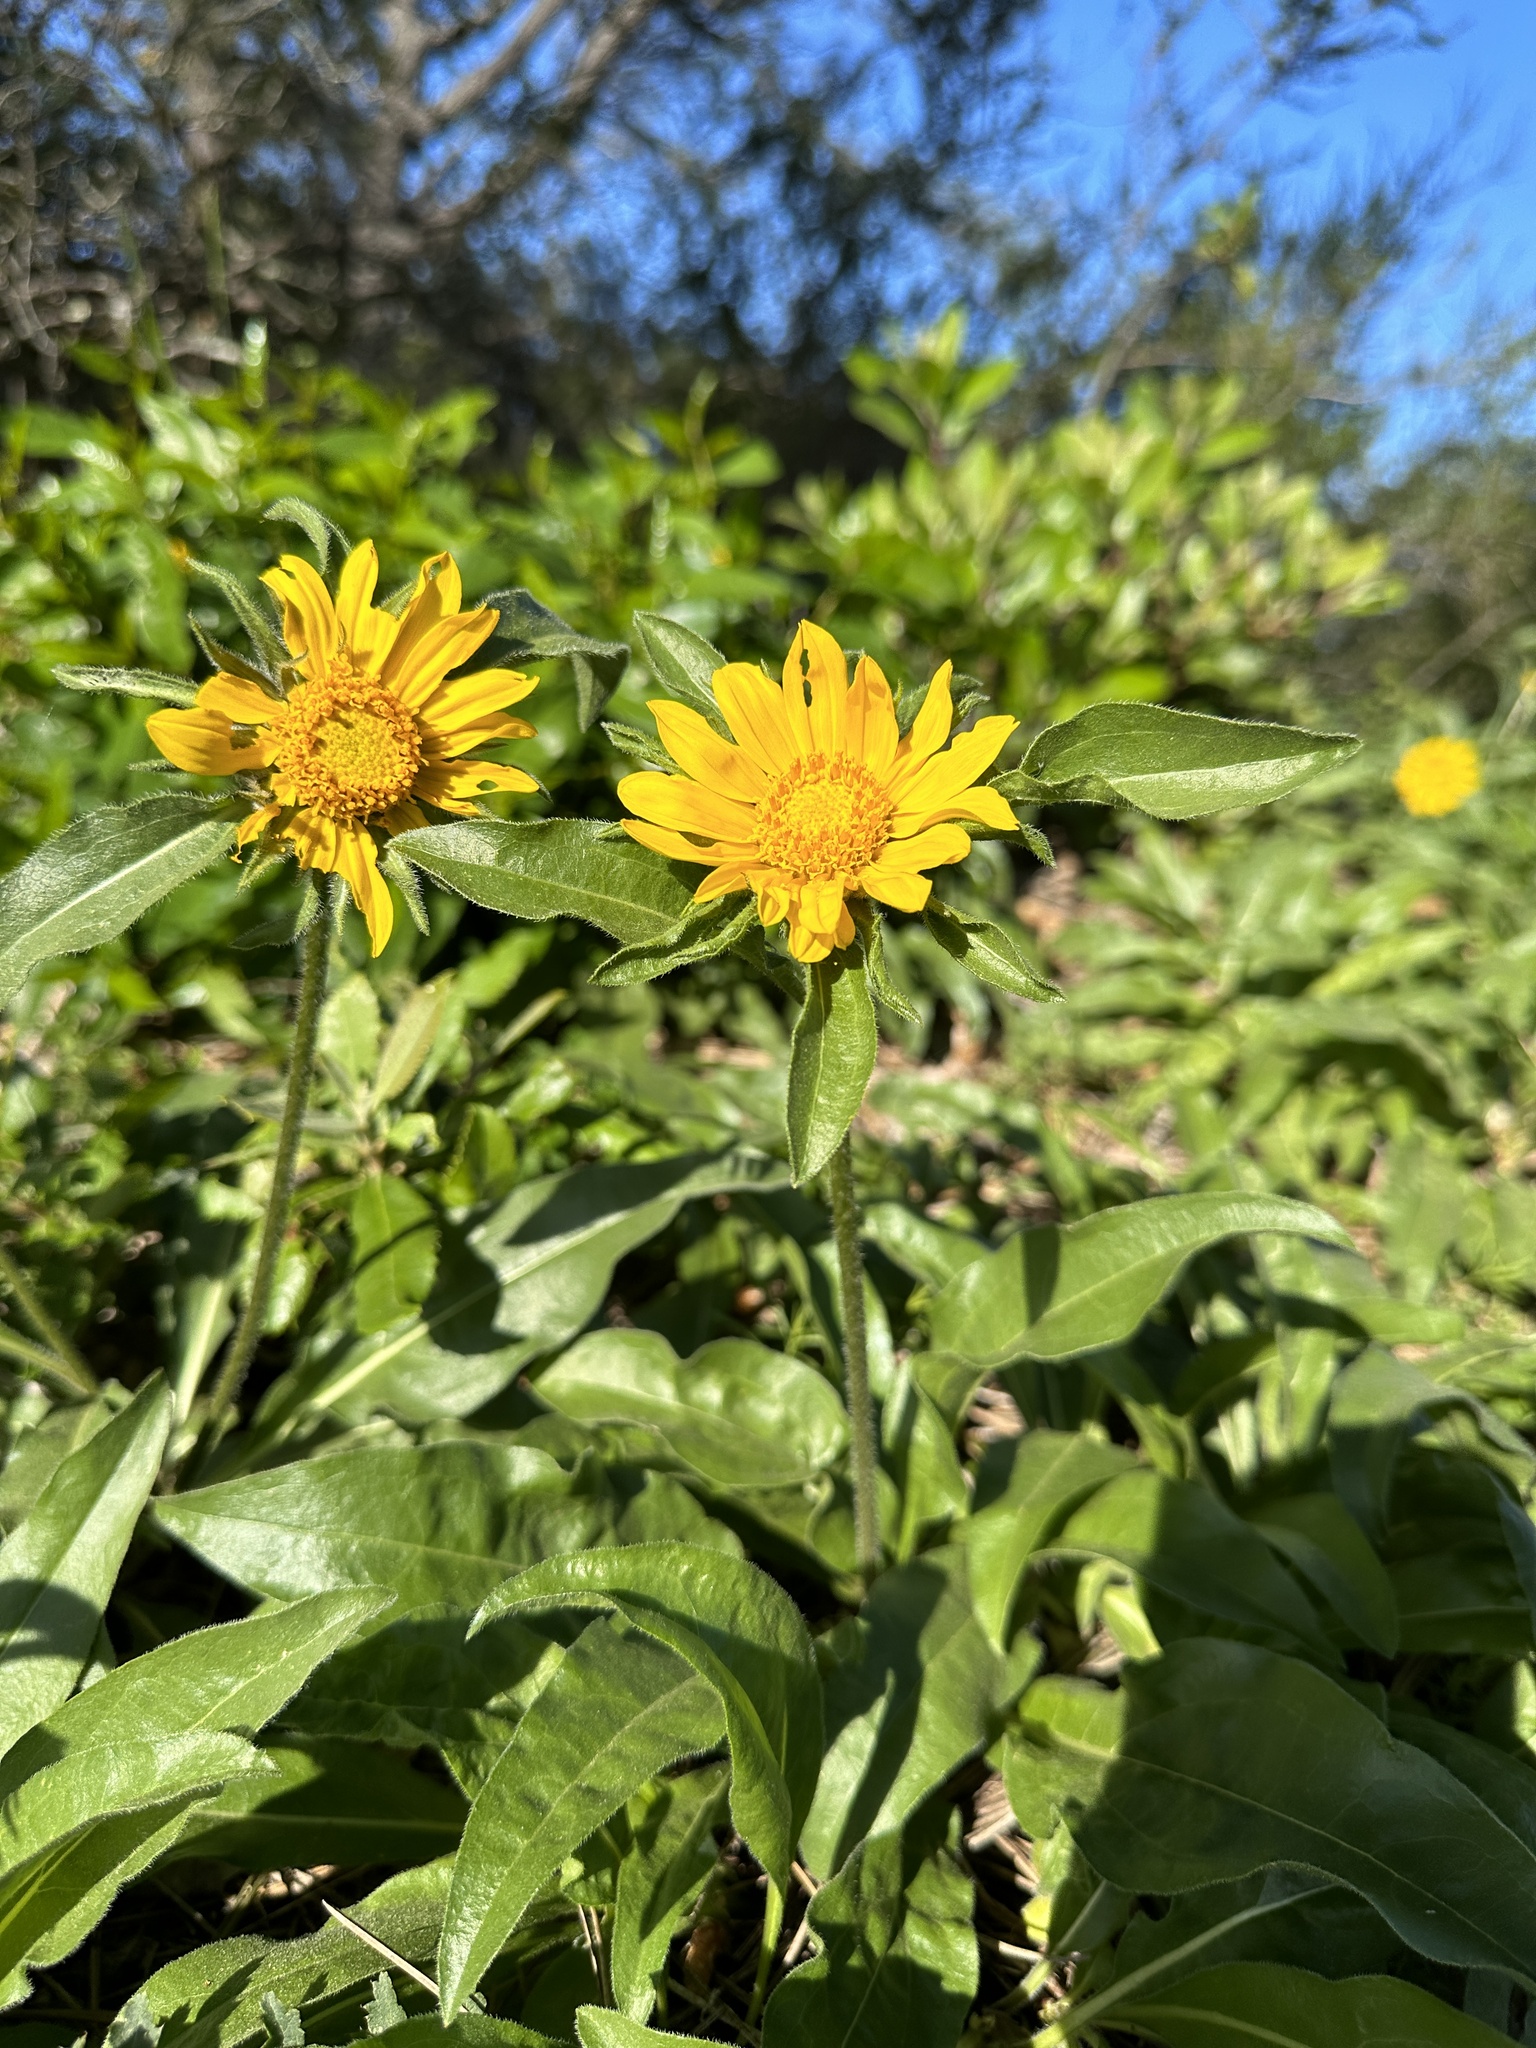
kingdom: Plantae
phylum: Tracheophyta
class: Magnoliopsida
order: Asterales
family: Asteraceae
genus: Helianthella
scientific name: Helianthella castanea
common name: Diablo helianthella
